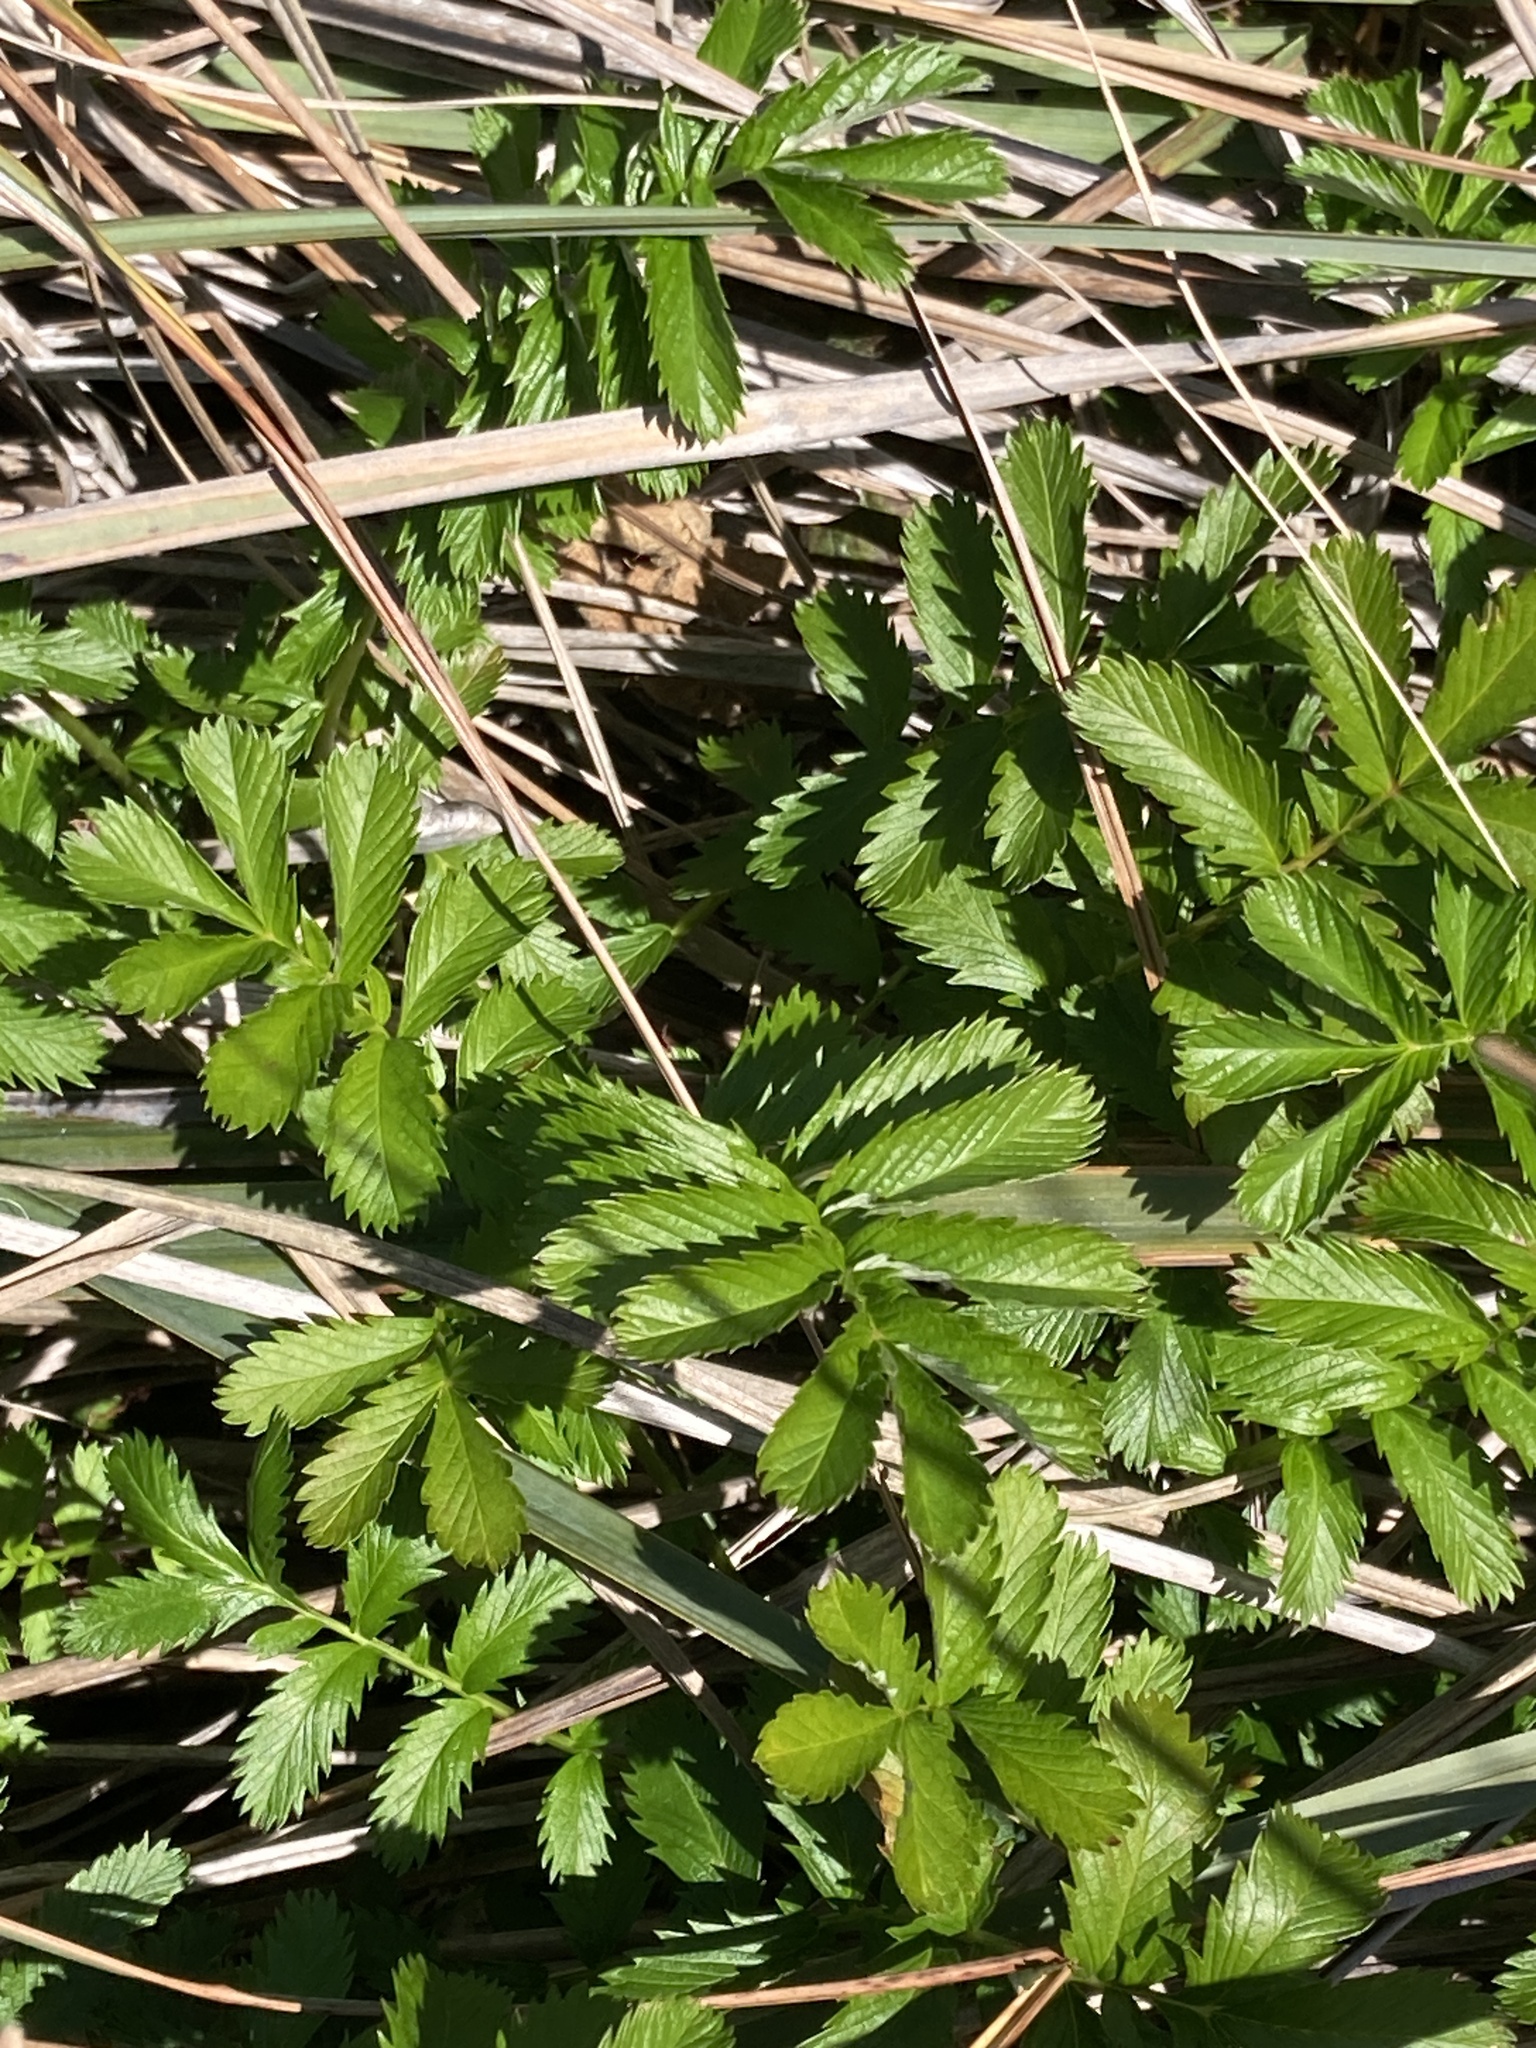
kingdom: Plantae
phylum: Tracheophyta
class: Magnoliopsida
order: Rosales
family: Rosaceae
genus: Argentina
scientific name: Argentina anserina
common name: Common silverweed
